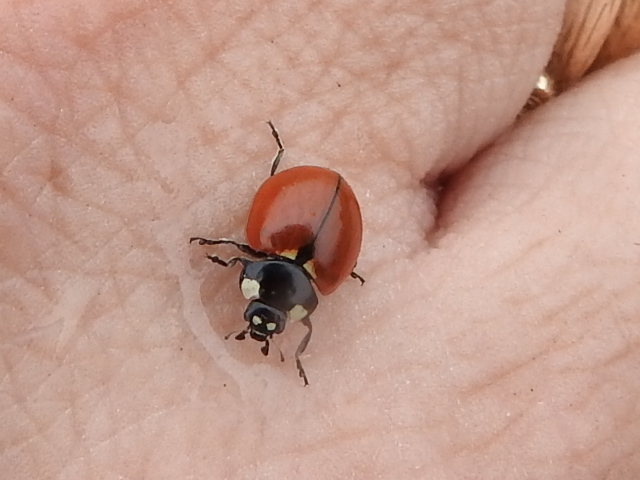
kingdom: Animalia
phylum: Arthropoda
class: Insecta
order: Coleoptera
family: Coccinellidae
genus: Coccinella
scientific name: Coccinella californica
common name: Lady beetle
